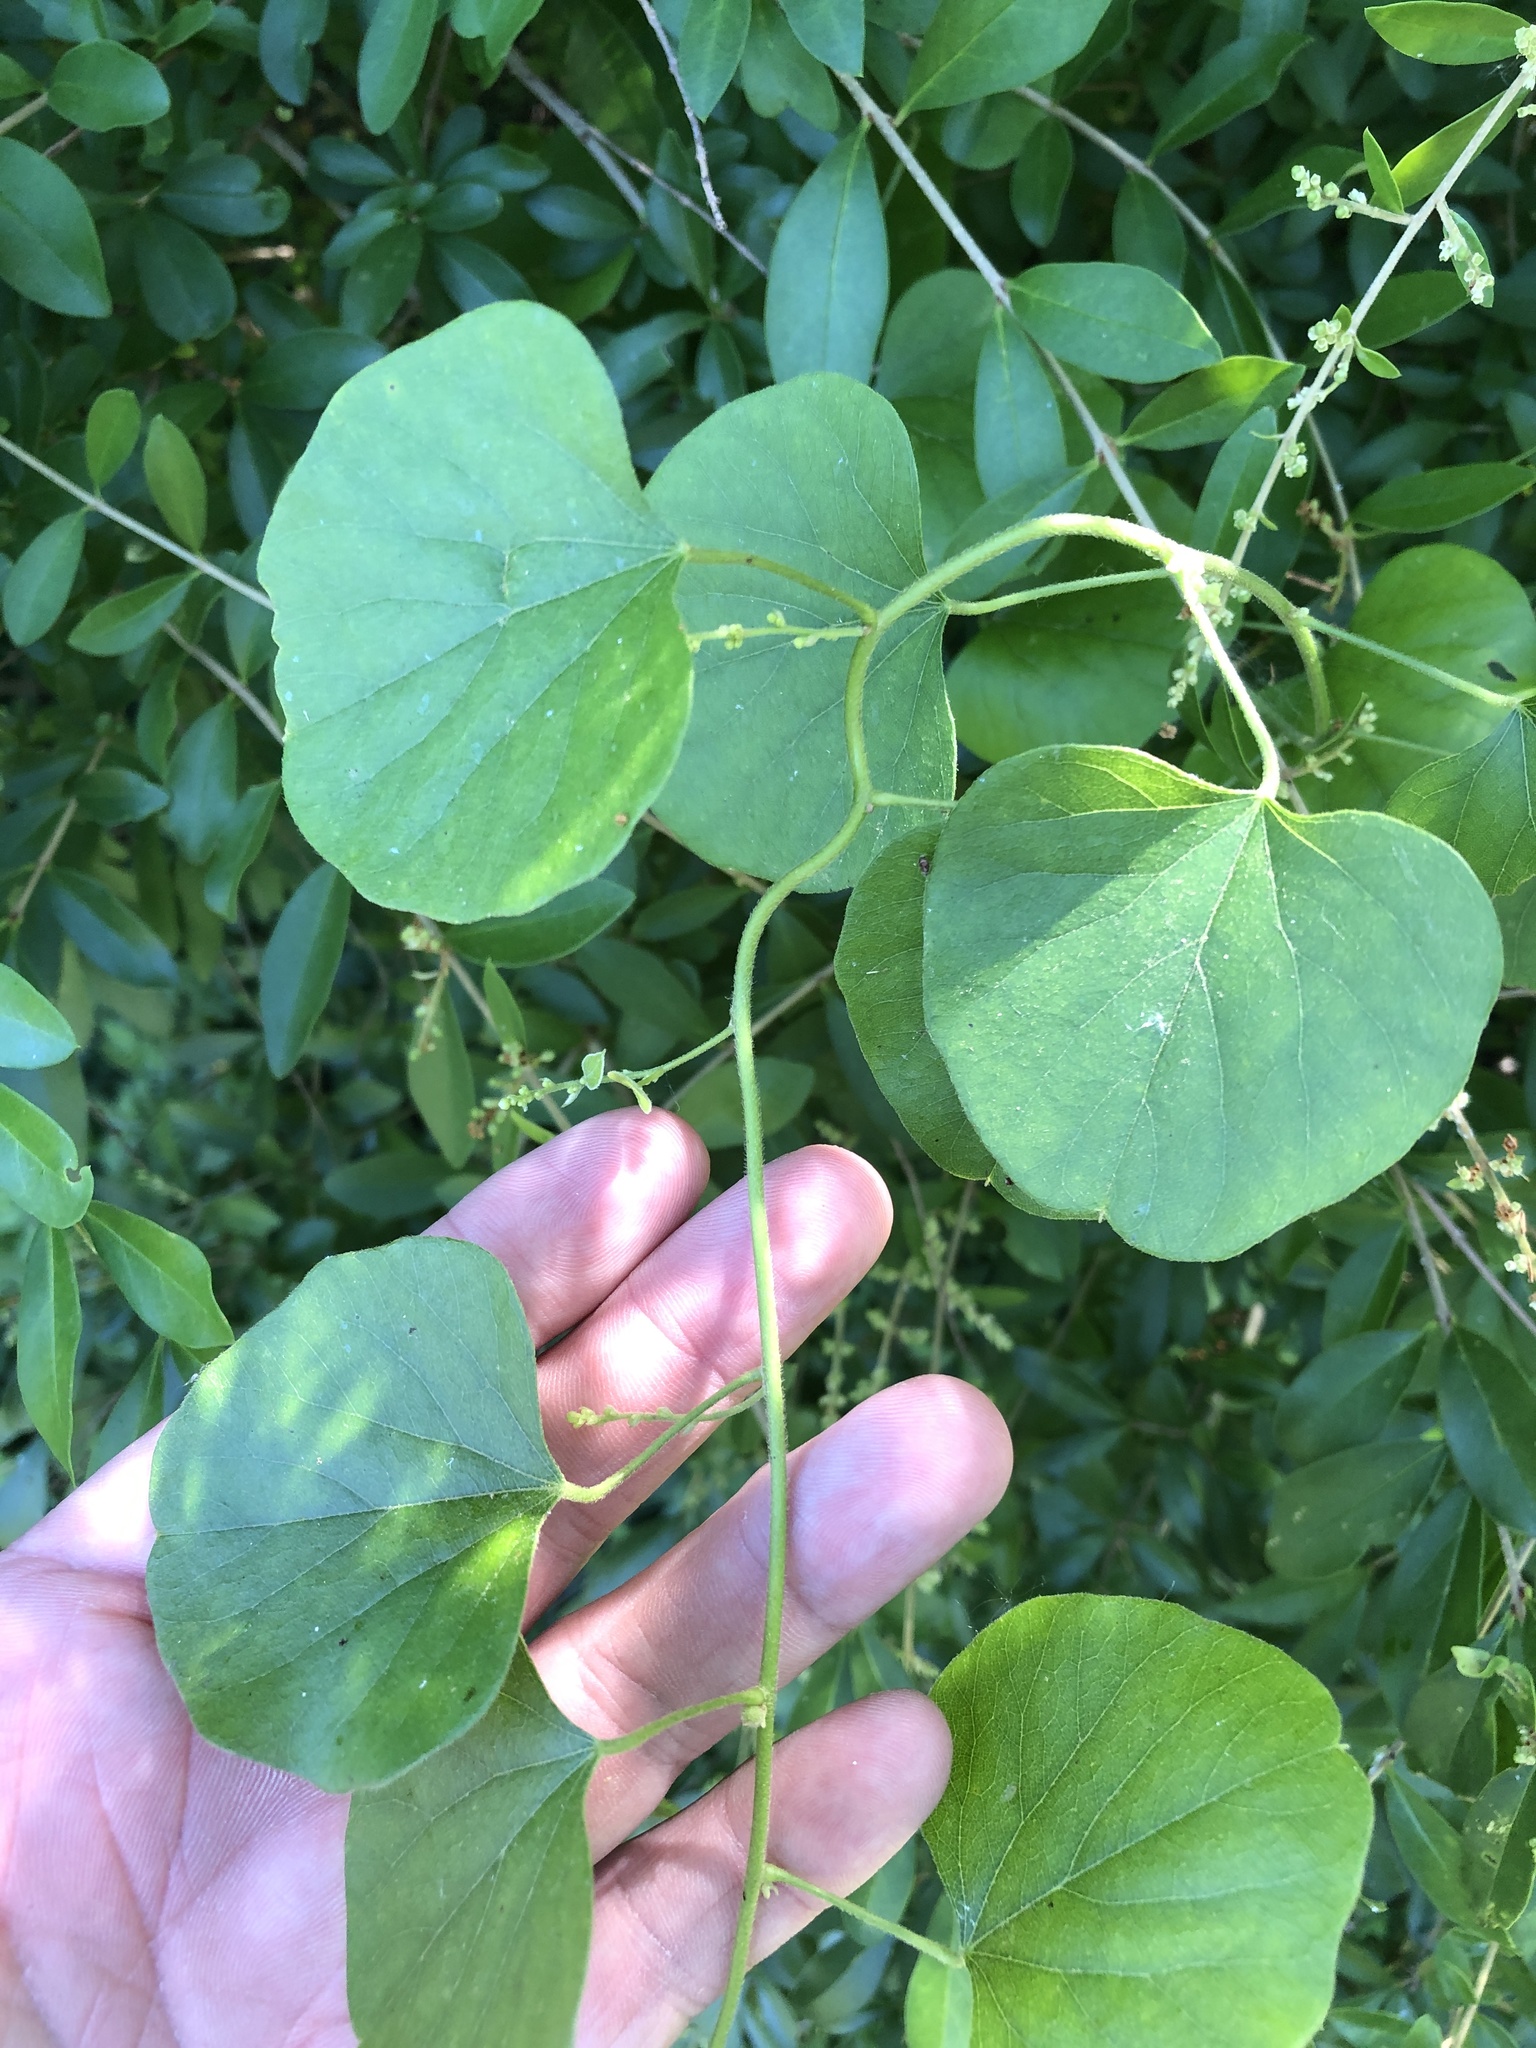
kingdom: Plantae
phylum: Tracheophyta
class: Magnoliopsida
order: Ranunculales
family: Menispermaceae
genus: Cocculus
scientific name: Cocculus carolinus
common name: Carolina moonseed
